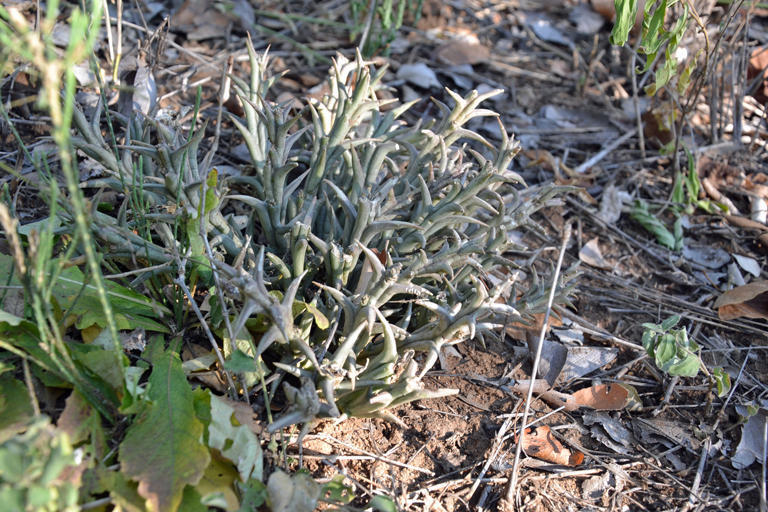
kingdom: Plantae
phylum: Tracheophyta
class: Magnoliopsida
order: Gentianales
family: Apocynaceae
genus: Ceropegia
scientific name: Ceropegia rogersii
